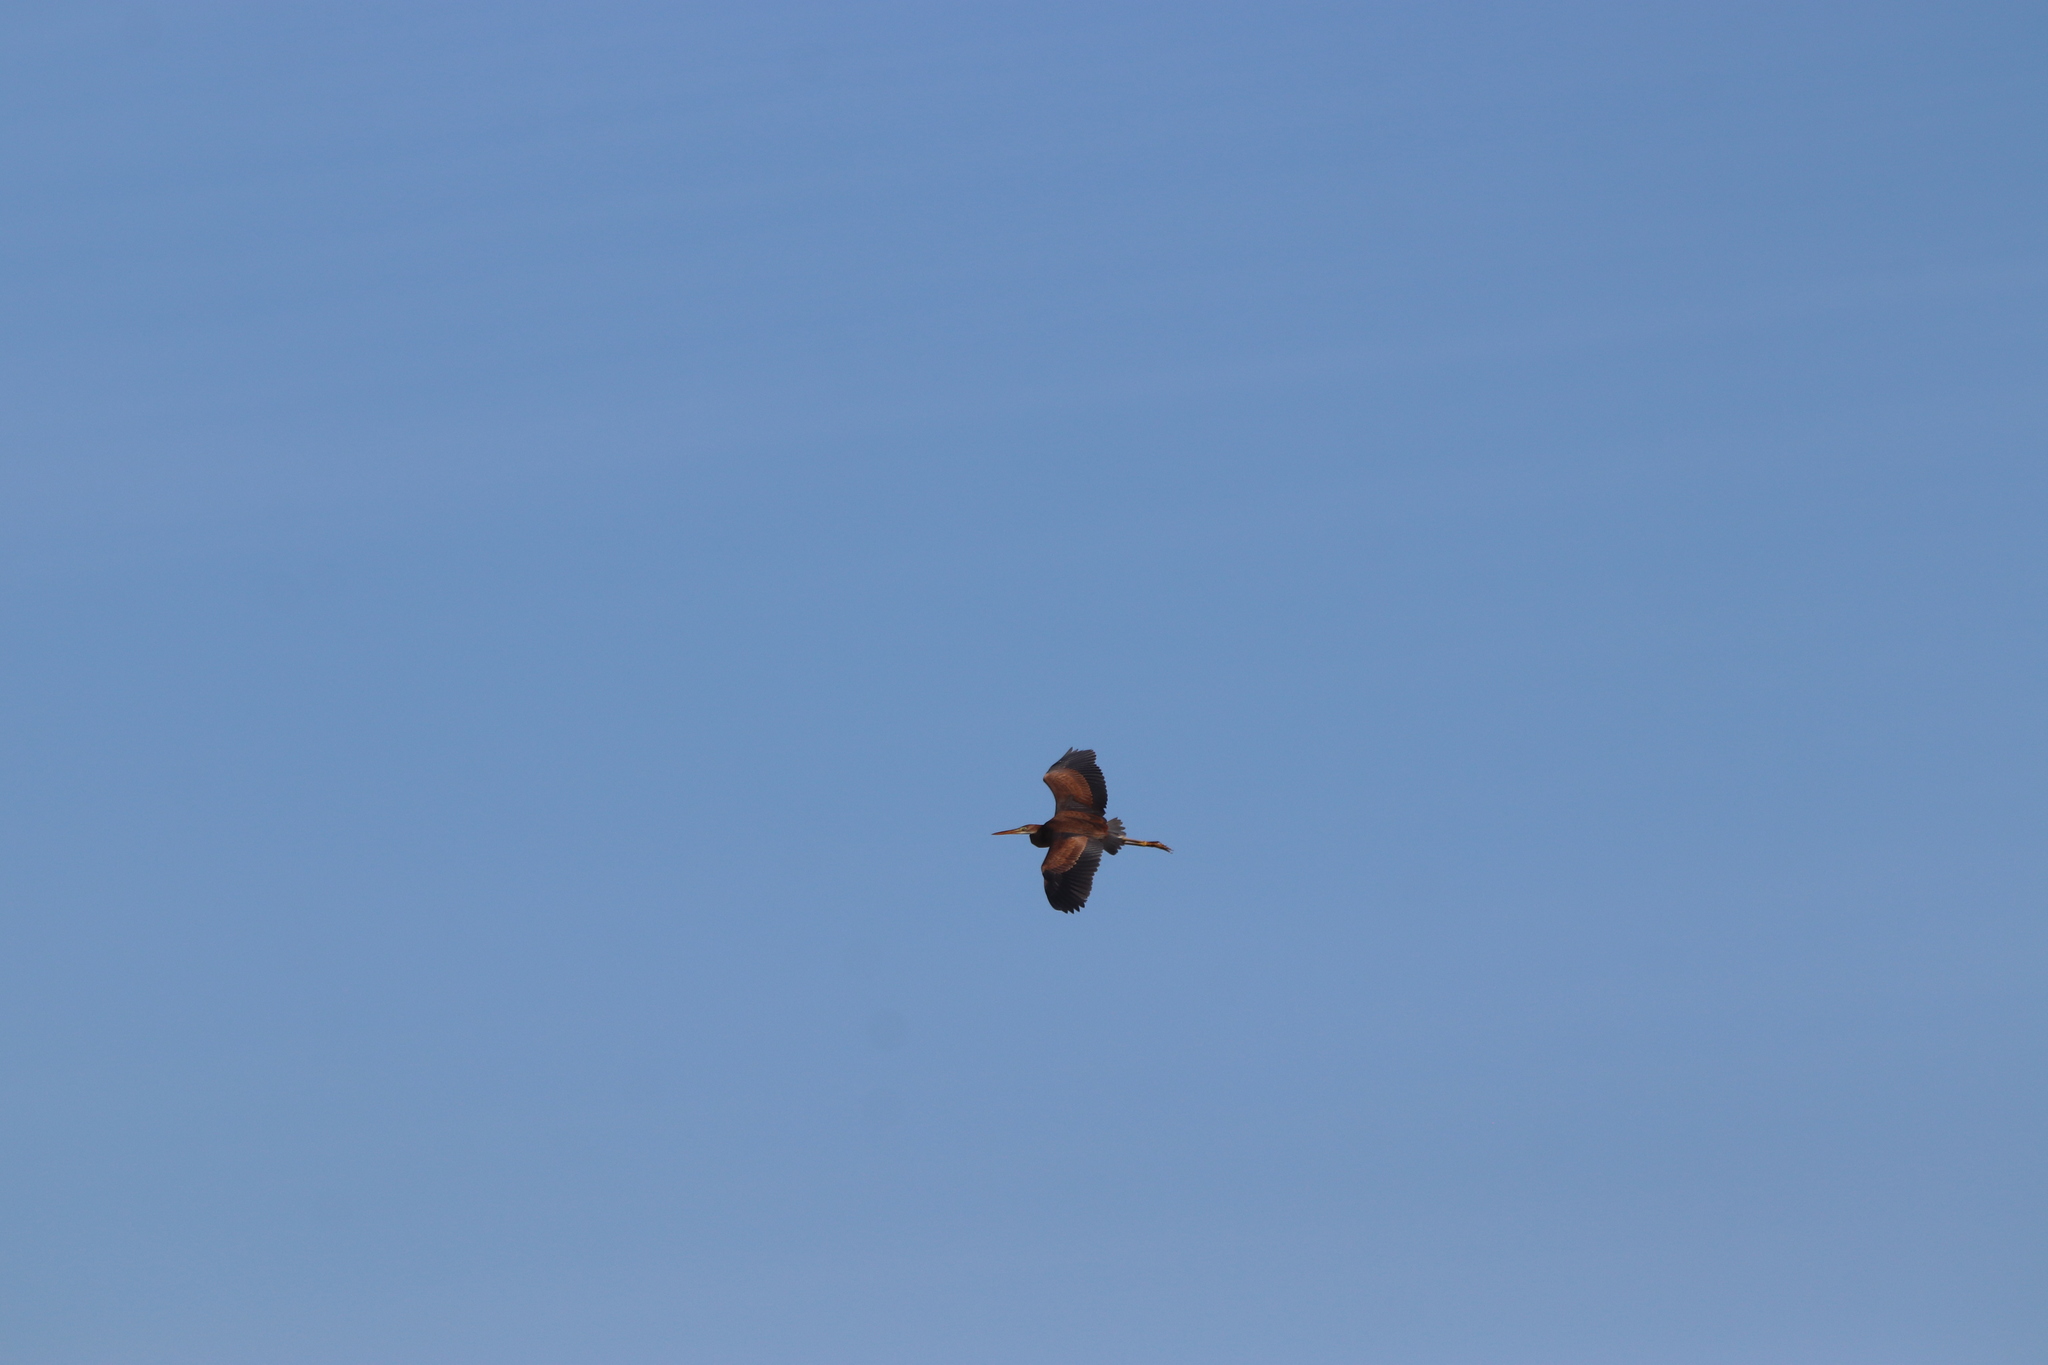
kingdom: Animalia
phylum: Chordata
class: Aves
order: Pelecaniformes
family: Ardeidae
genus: Ardea
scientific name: Ardea purpurea
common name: Purple heron
